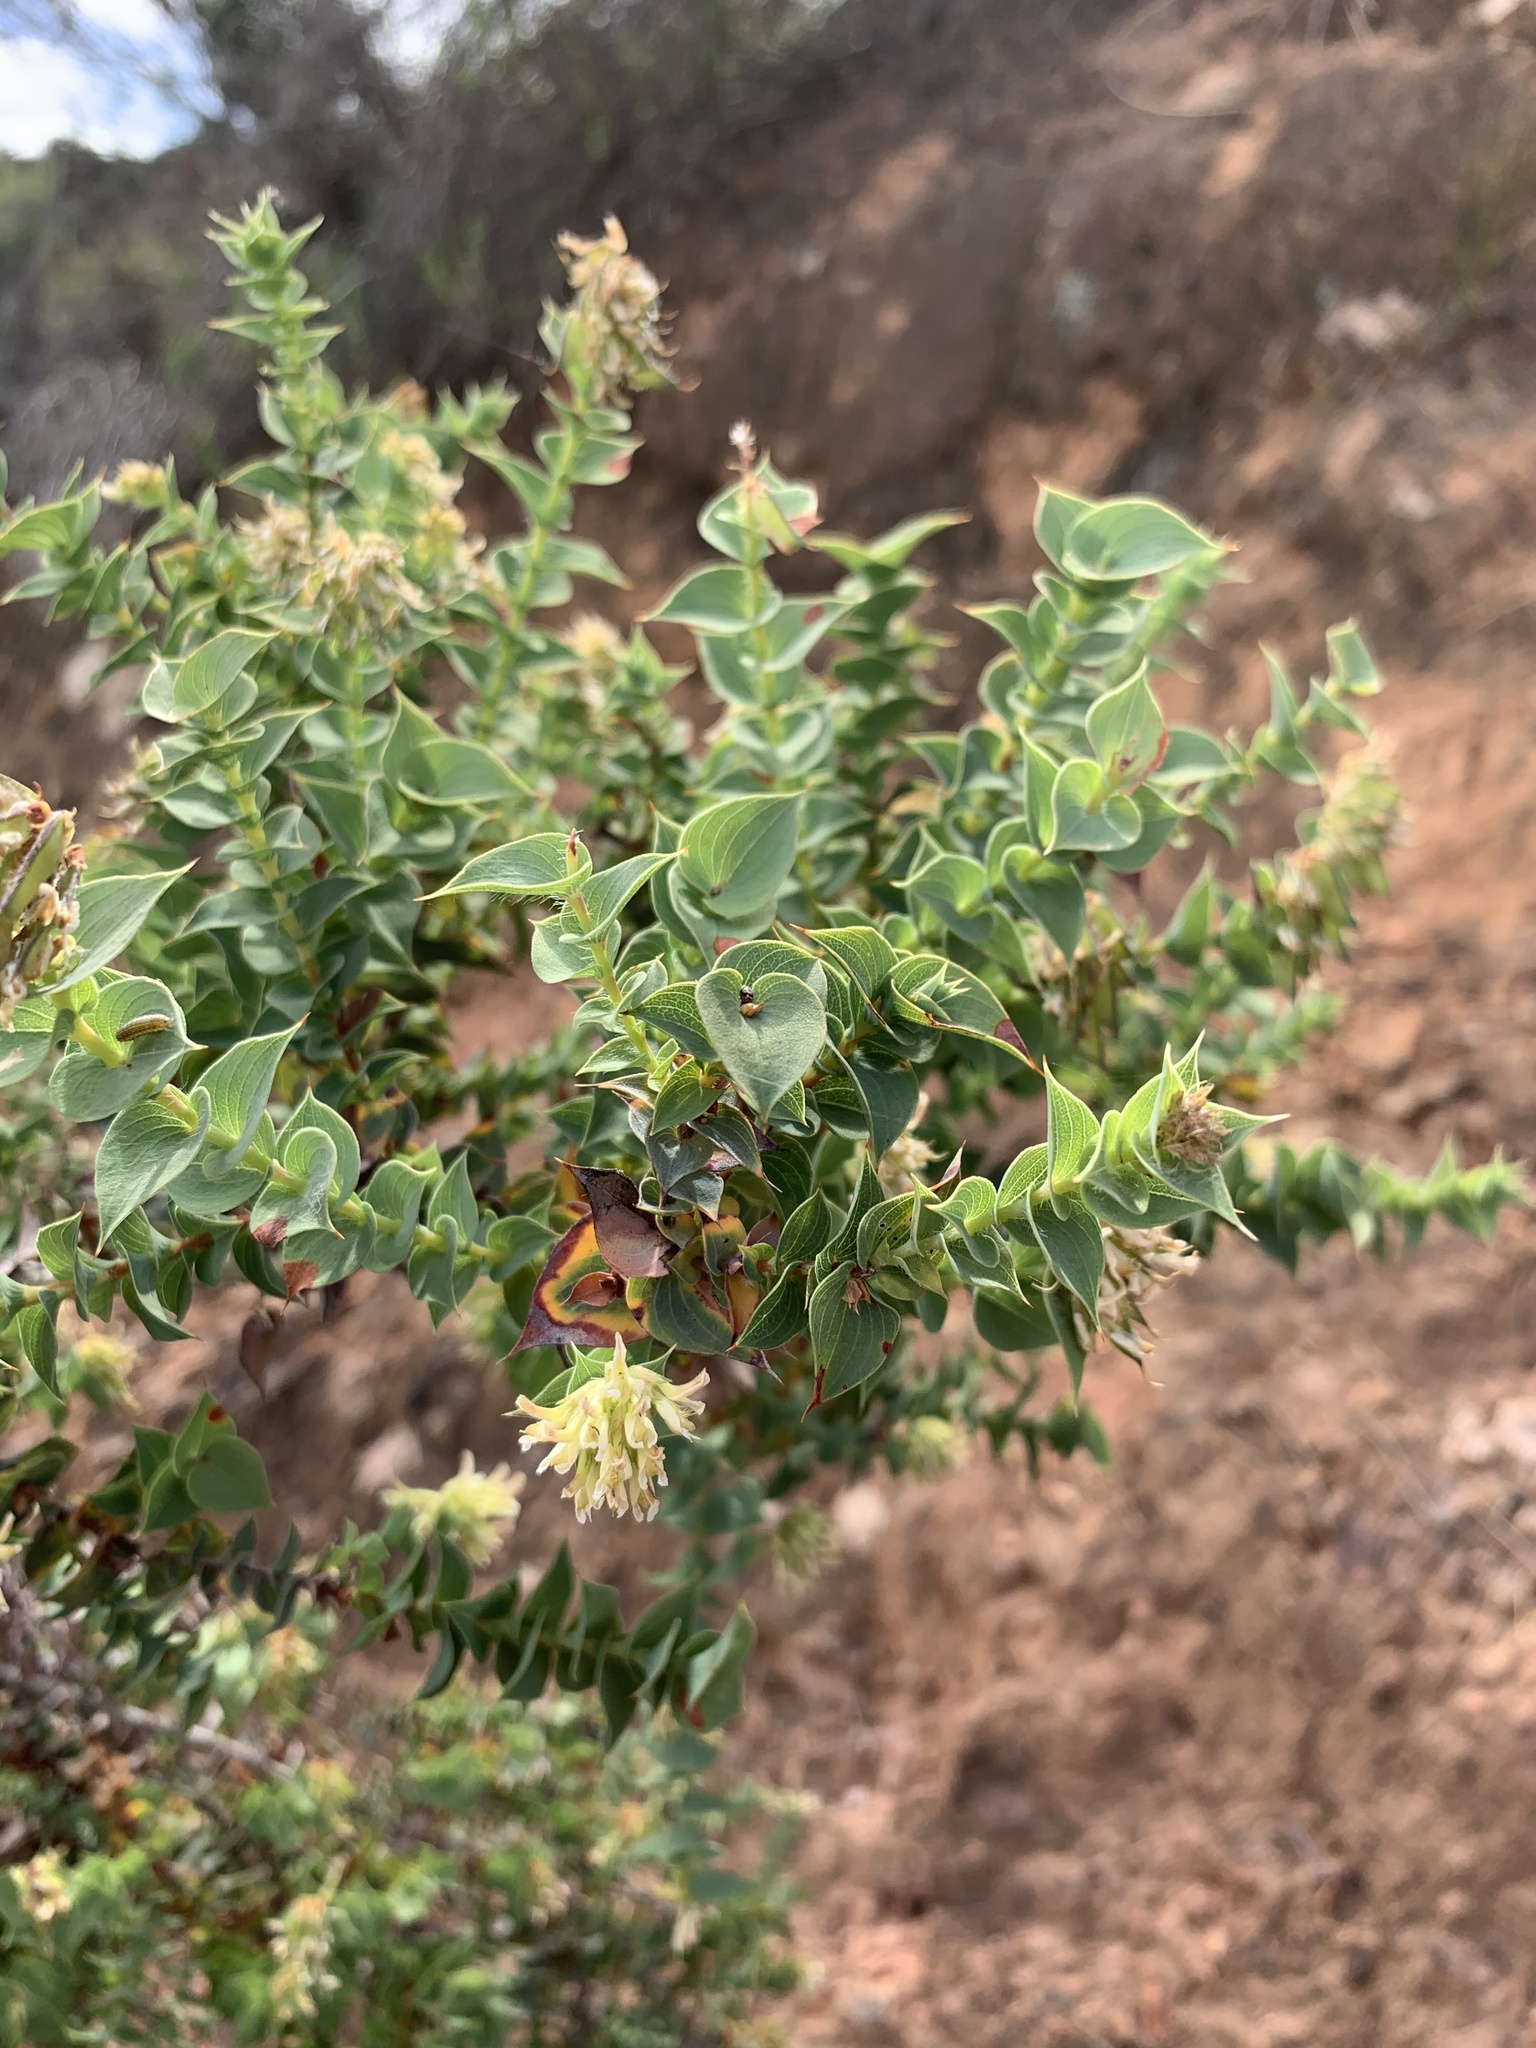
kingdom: Plantae
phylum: Tracheophyta
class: Magnoliopsida
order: Fabales
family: Fabaceae
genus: Aspalathus
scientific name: Aspalathus complicata
